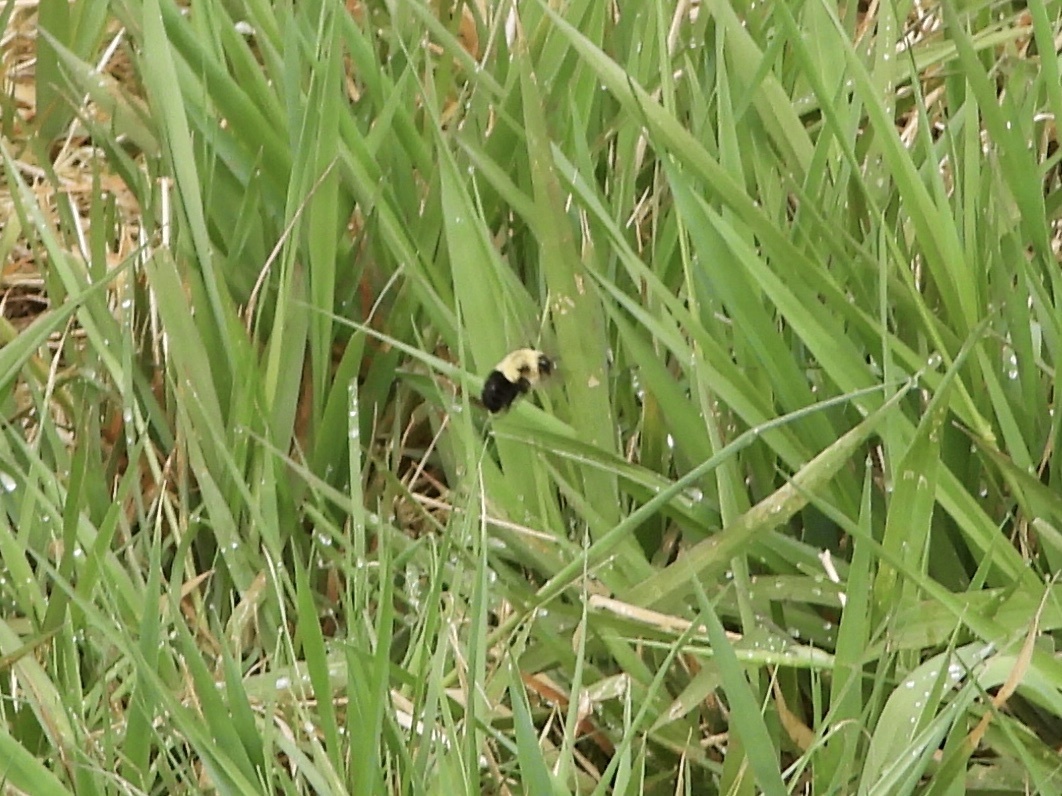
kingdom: Animalia
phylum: Arthropoda
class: Insecta
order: Hymenoptera
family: Apidae
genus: Bombus
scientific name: Bombus impatiens
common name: Common eastern bumble bee
